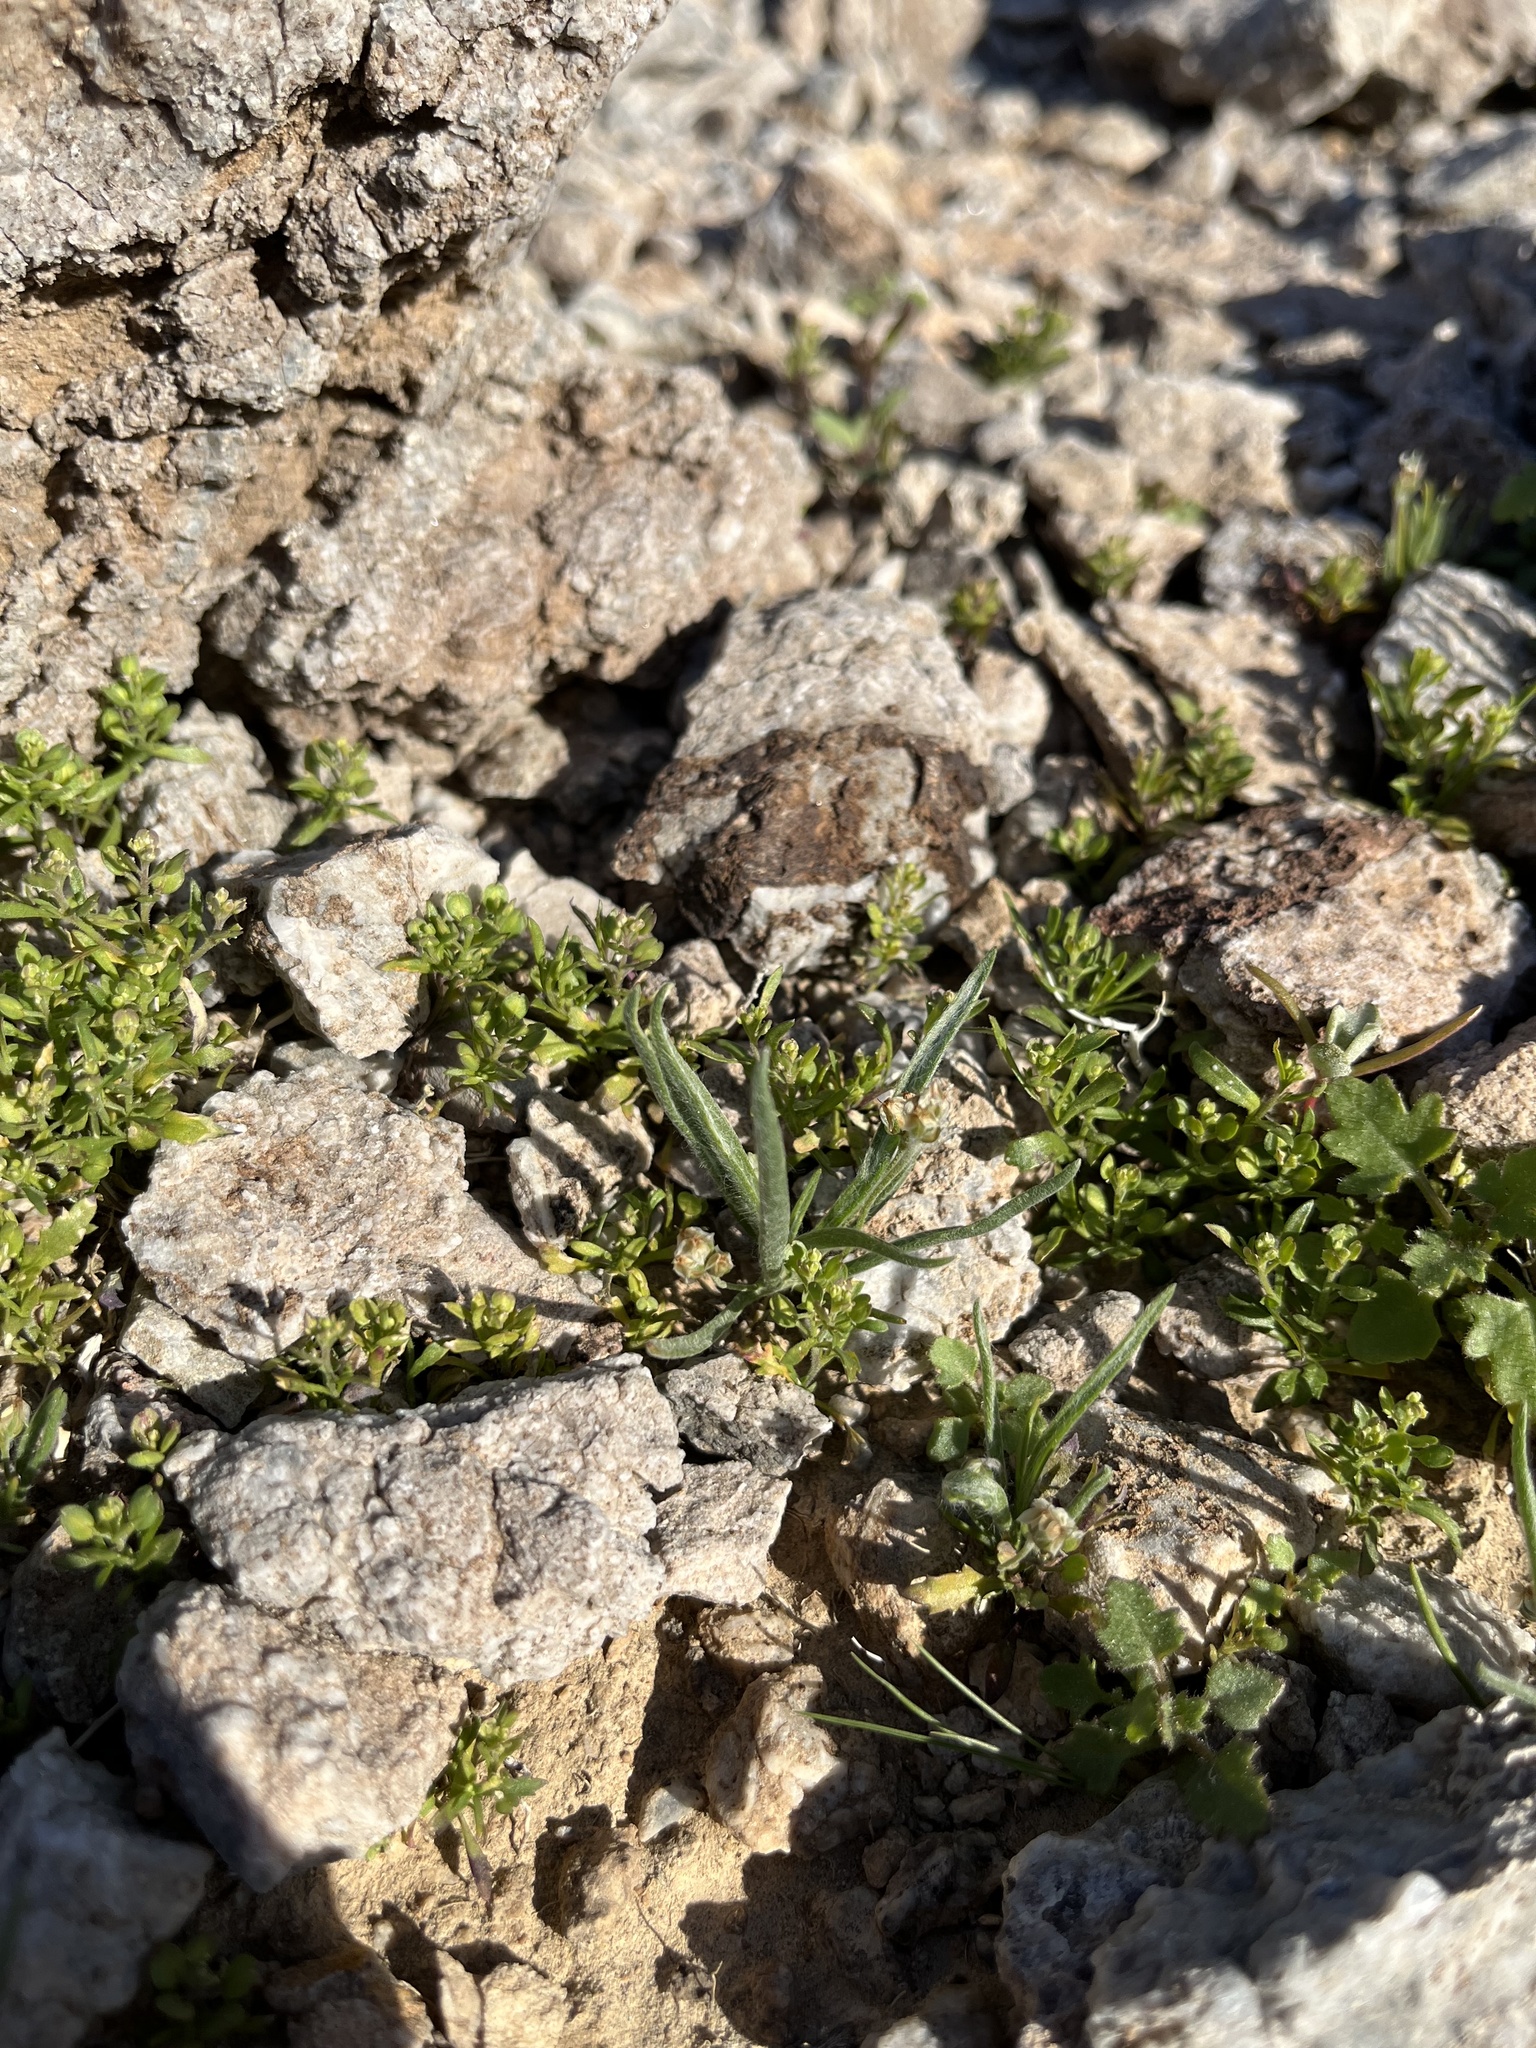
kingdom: Plantae
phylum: Tracheophyta
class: Magnoliopsida
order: Lamiales
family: Plantaginaceae
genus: Plantago
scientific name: Plantago ovata
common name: Blond plantain
